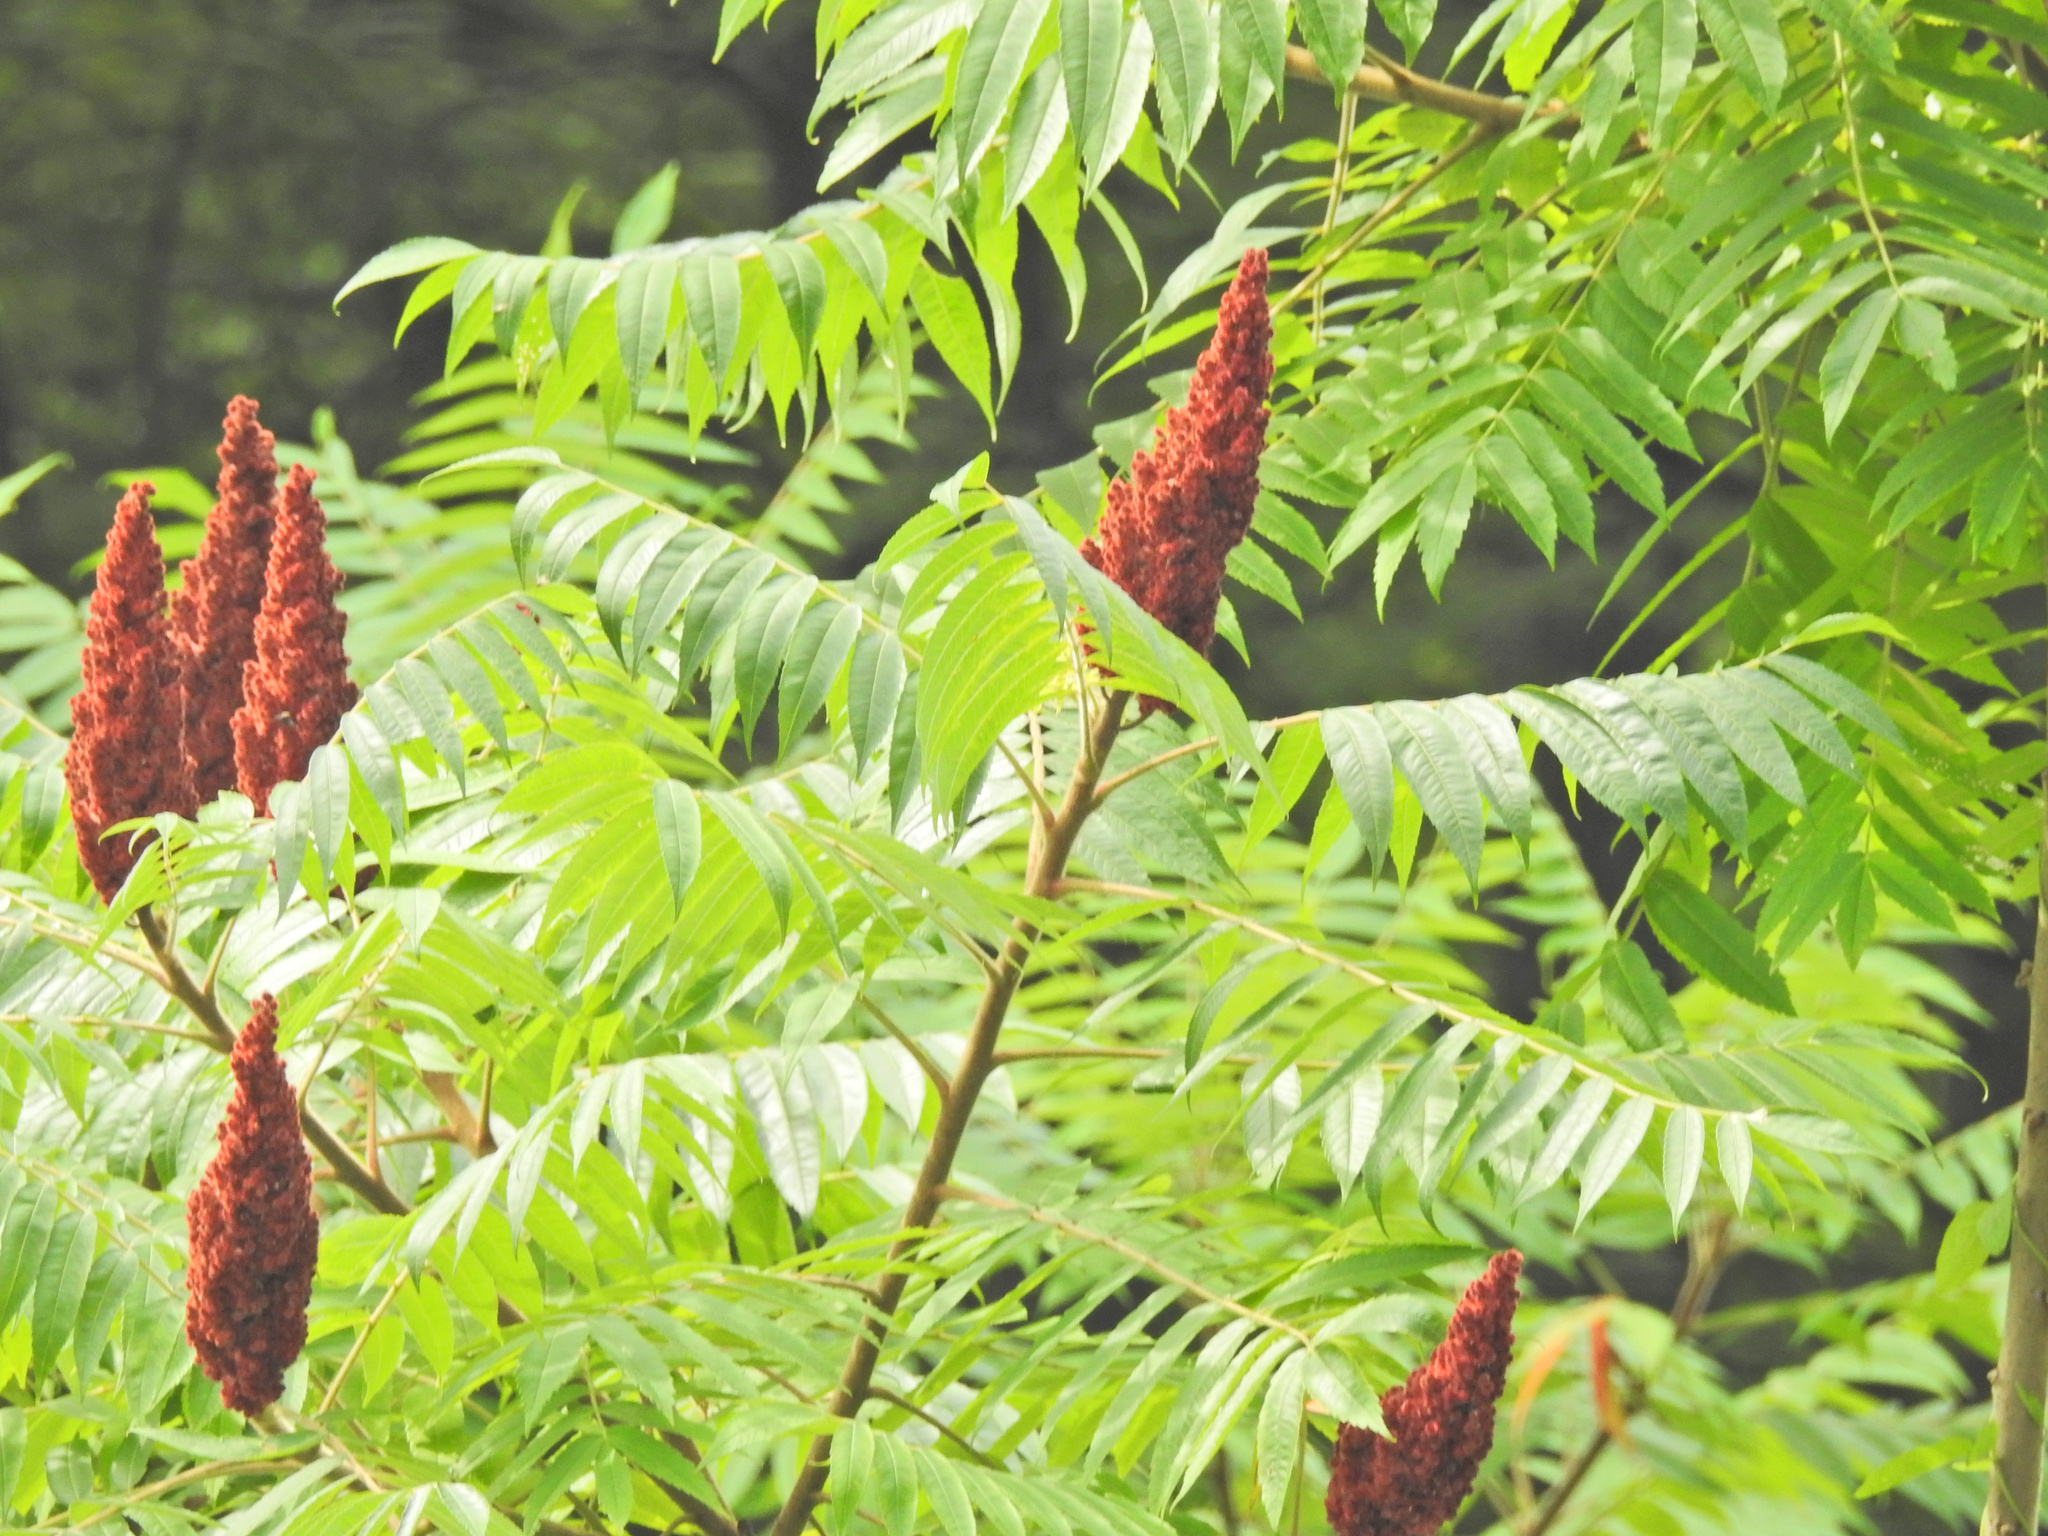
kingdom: Plantae
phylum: Tracheophyta
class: Magnoliopsida
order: Sapindales
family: Anacardiaceae
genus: Rhus
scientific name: Rhus typhina
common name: Staghorn sumac
